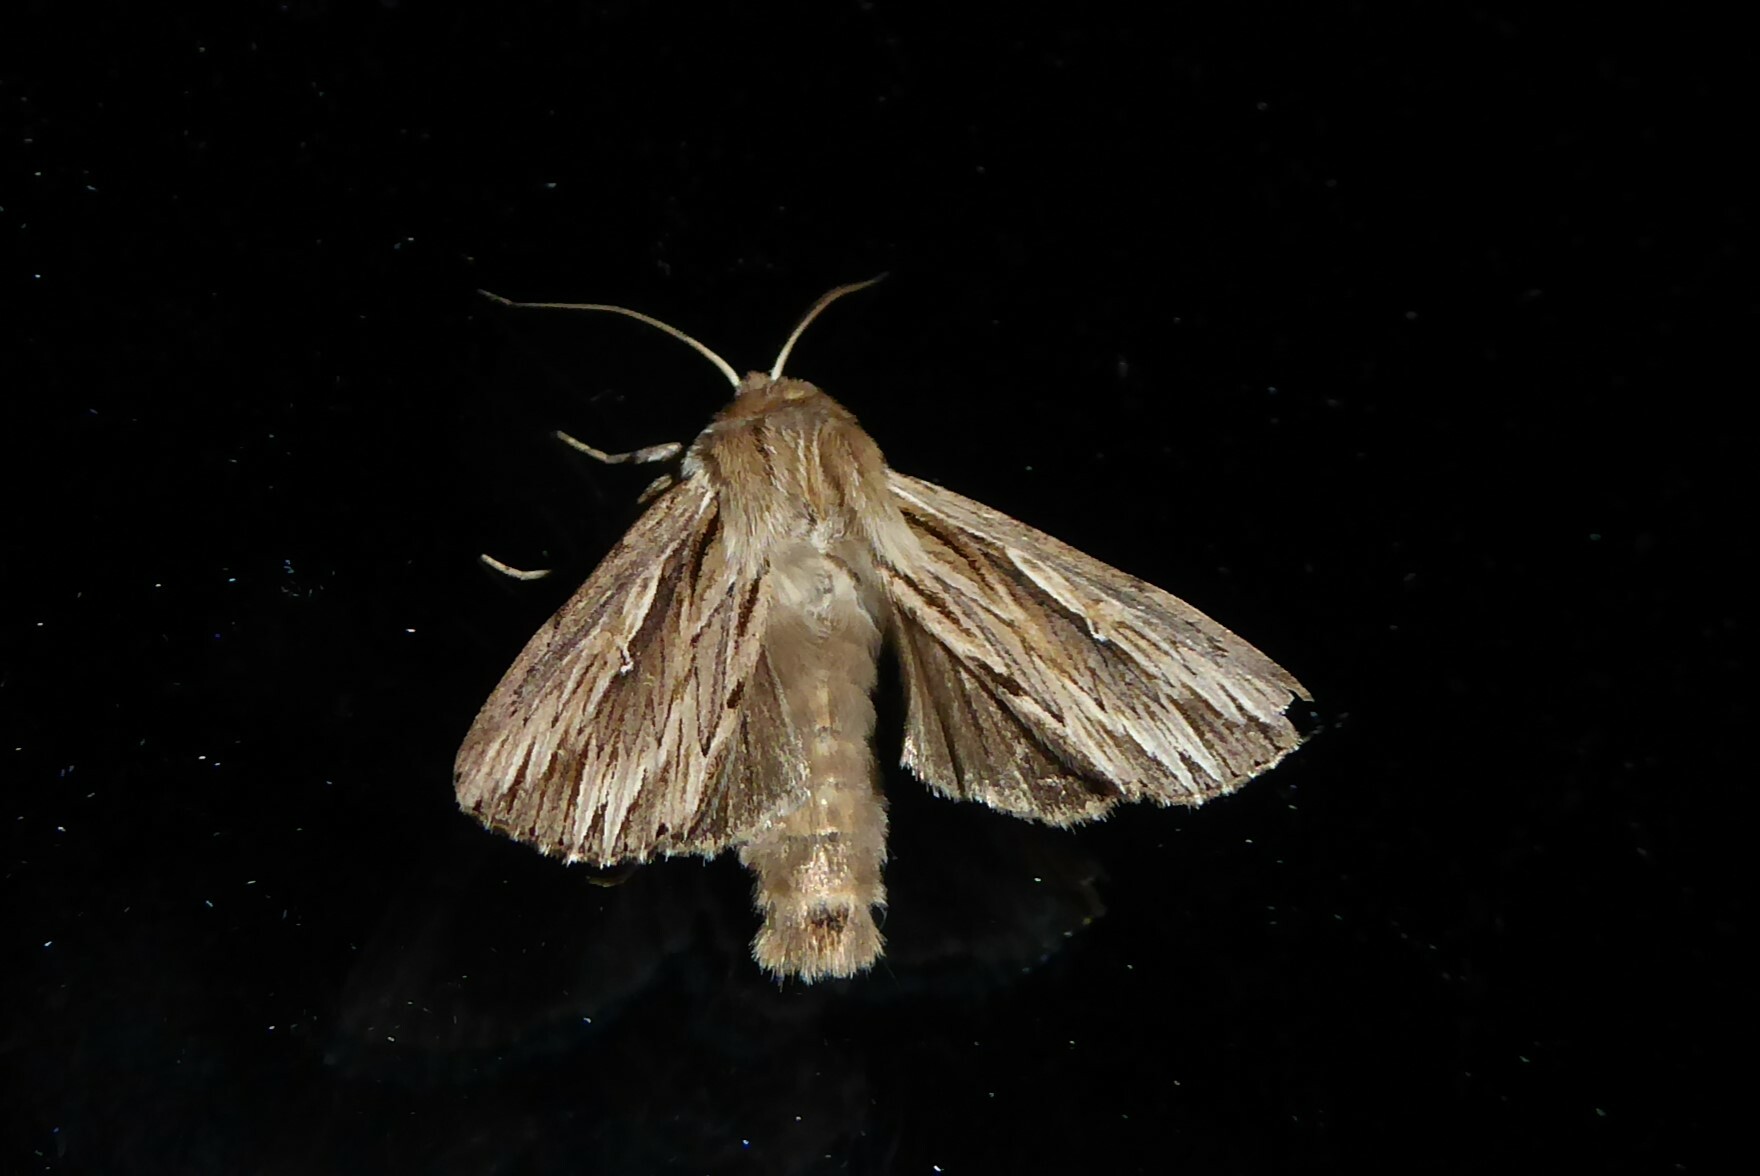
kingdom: Animalia
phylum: Arthropoda
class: Insecta
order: Lepidoptera
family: Noctuidae
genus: Persectania
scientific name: Persectania aversa
